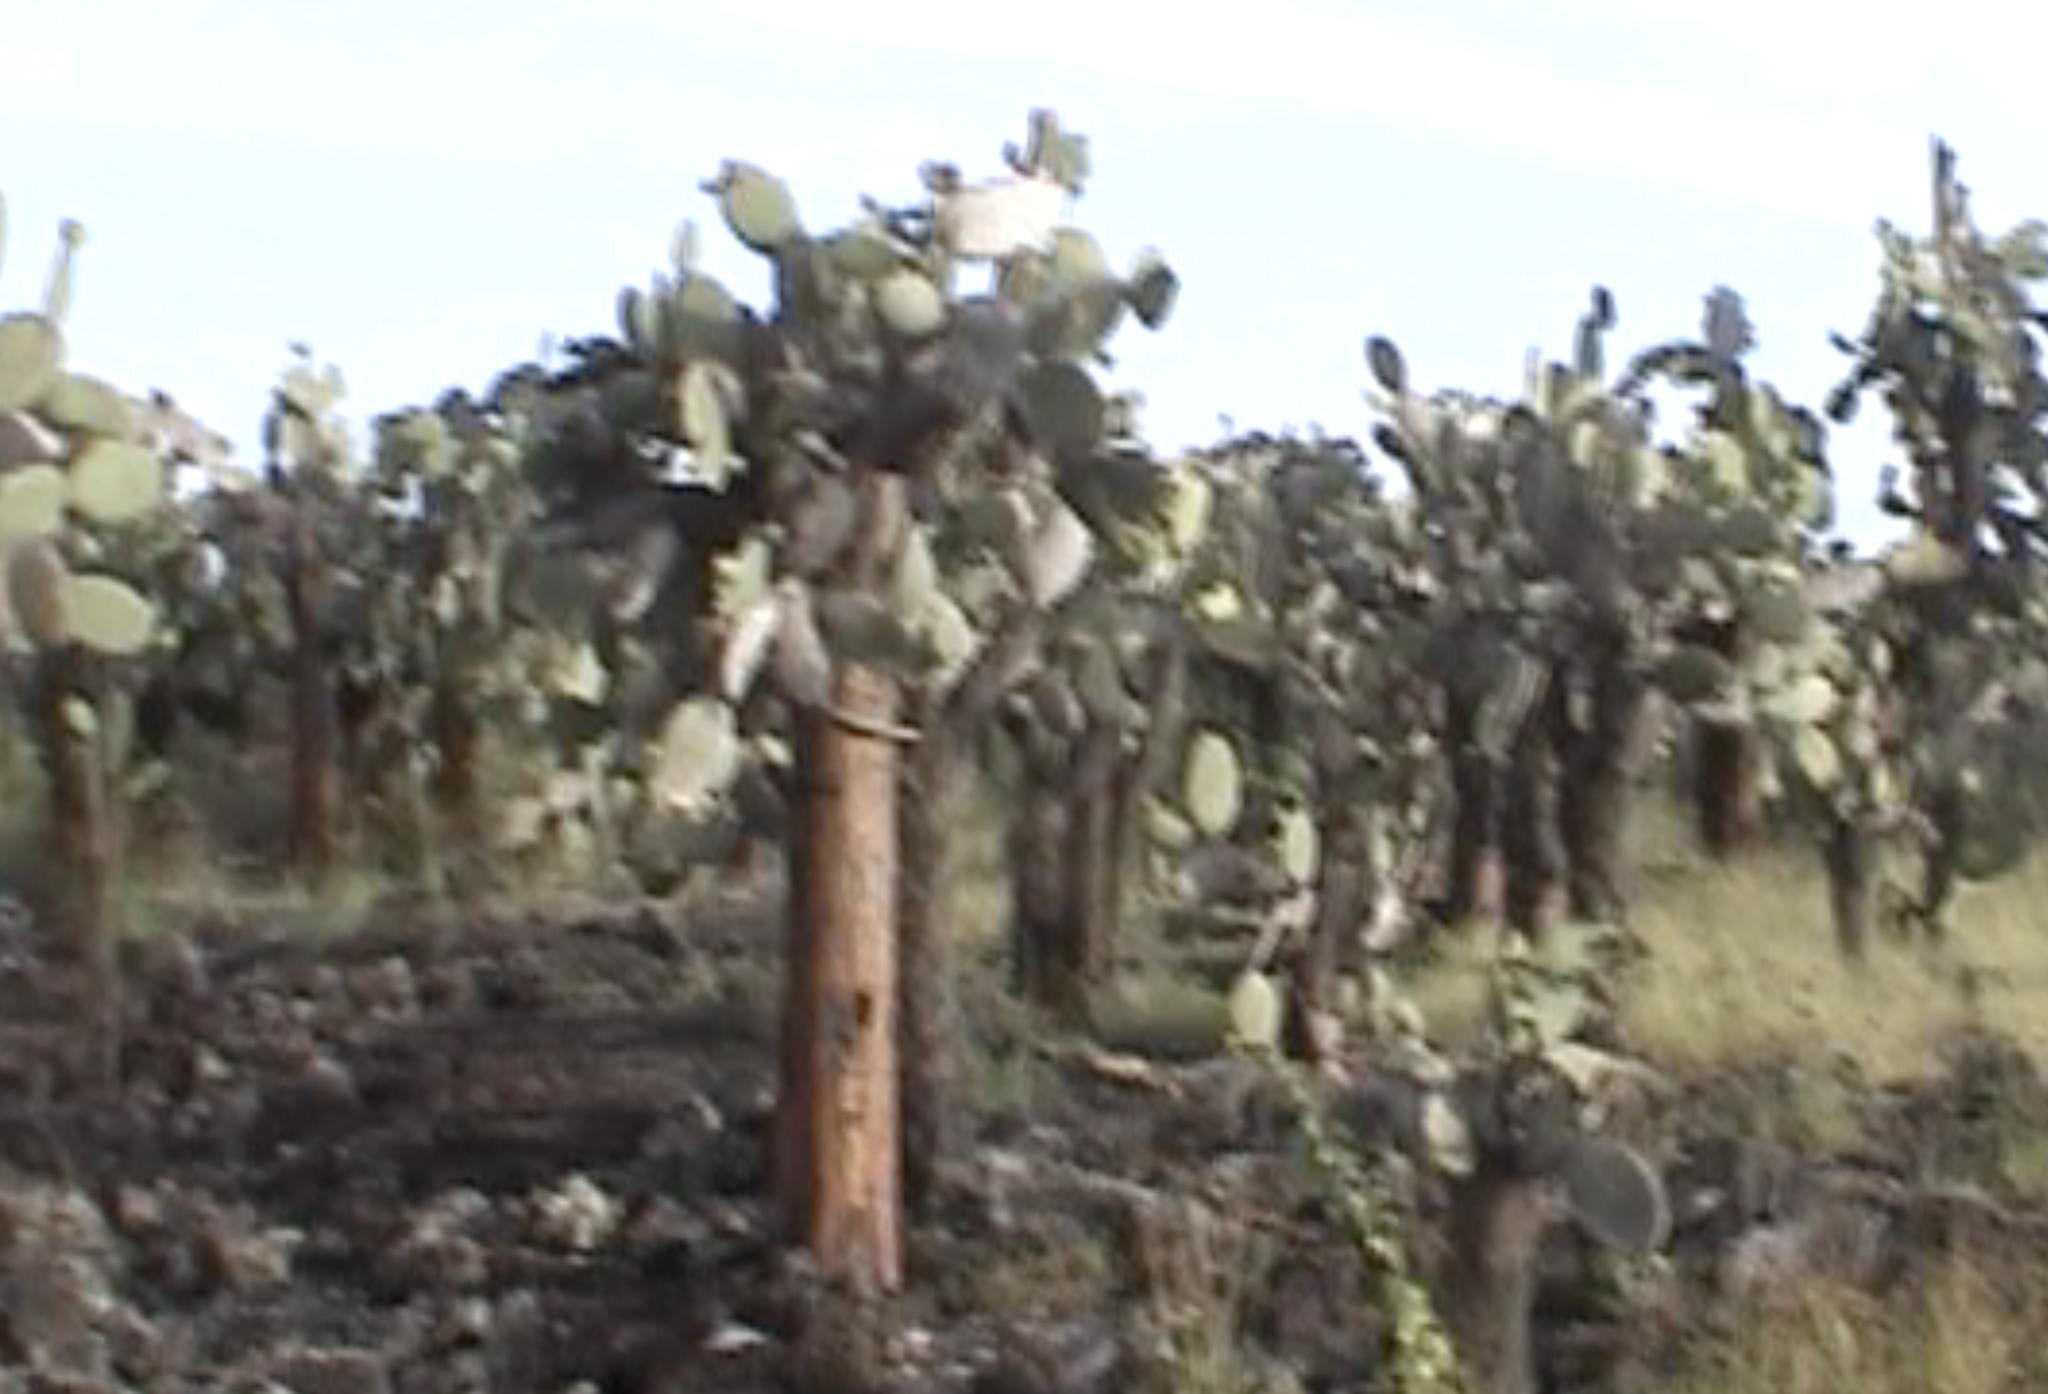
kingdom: Plantae
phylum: Tracheophyta
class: Magnoliopsida
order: Caryophyllales
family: Cactaceae
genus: Opuntia
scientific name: Opuntia galapageia
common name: Galápagos prickly pear
